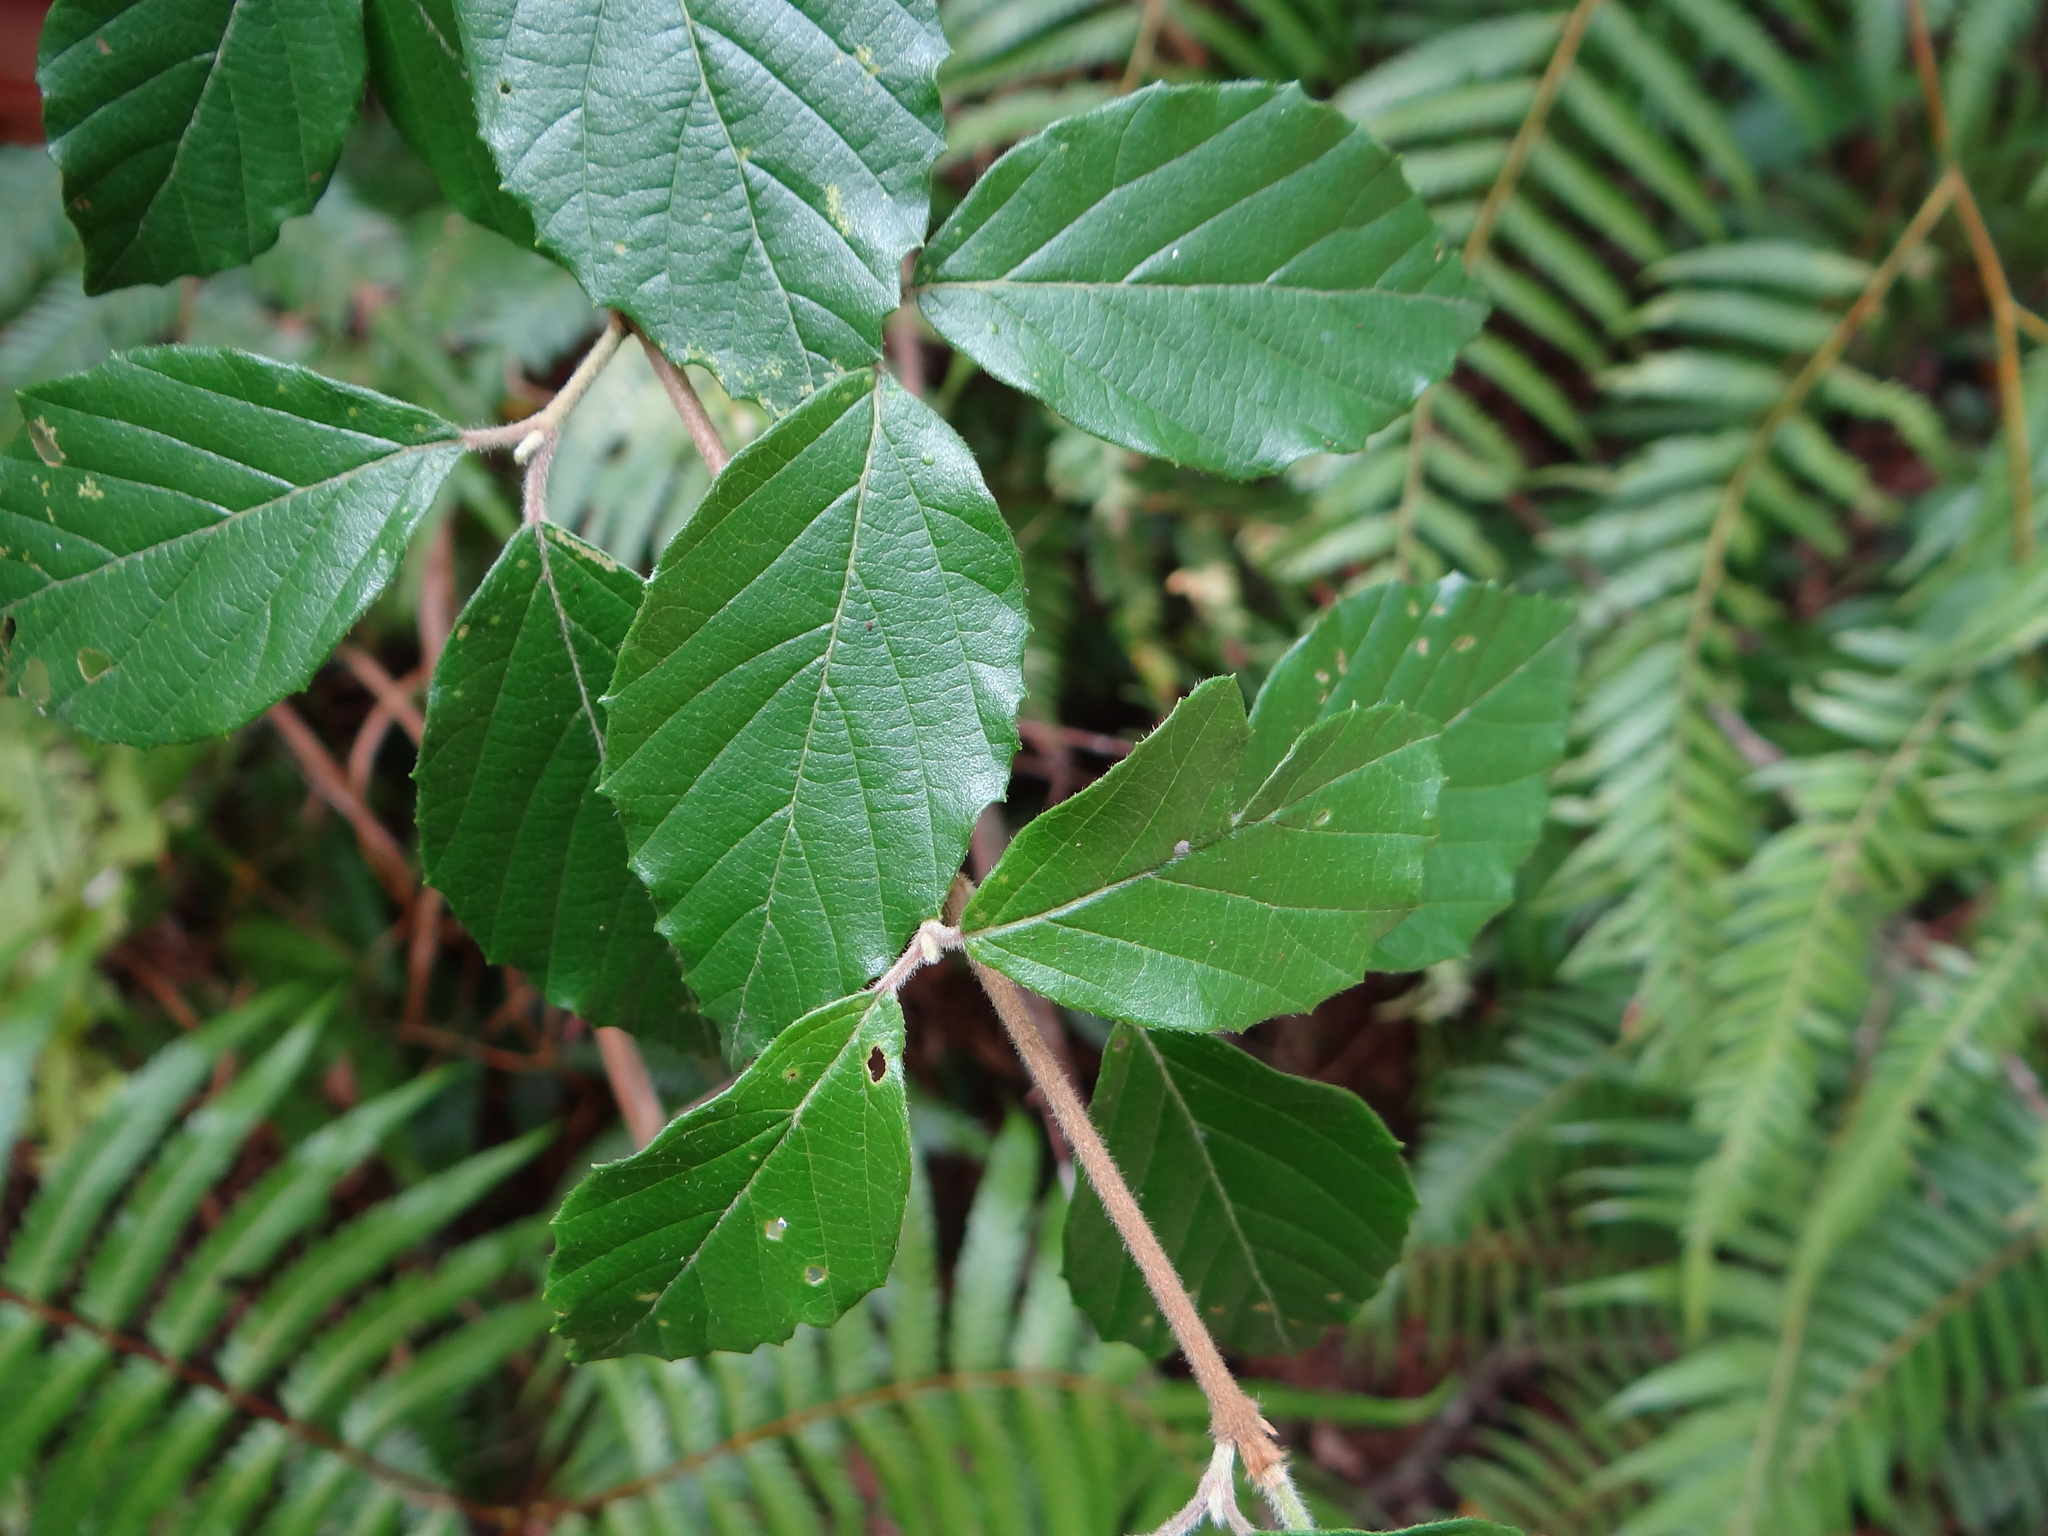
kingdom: Plantae
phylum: Tracheophyta
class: Magnoliopsida
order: Dipsacales
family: Viburnaceae
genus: Viburnum
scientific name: Viburnum luzonicum
